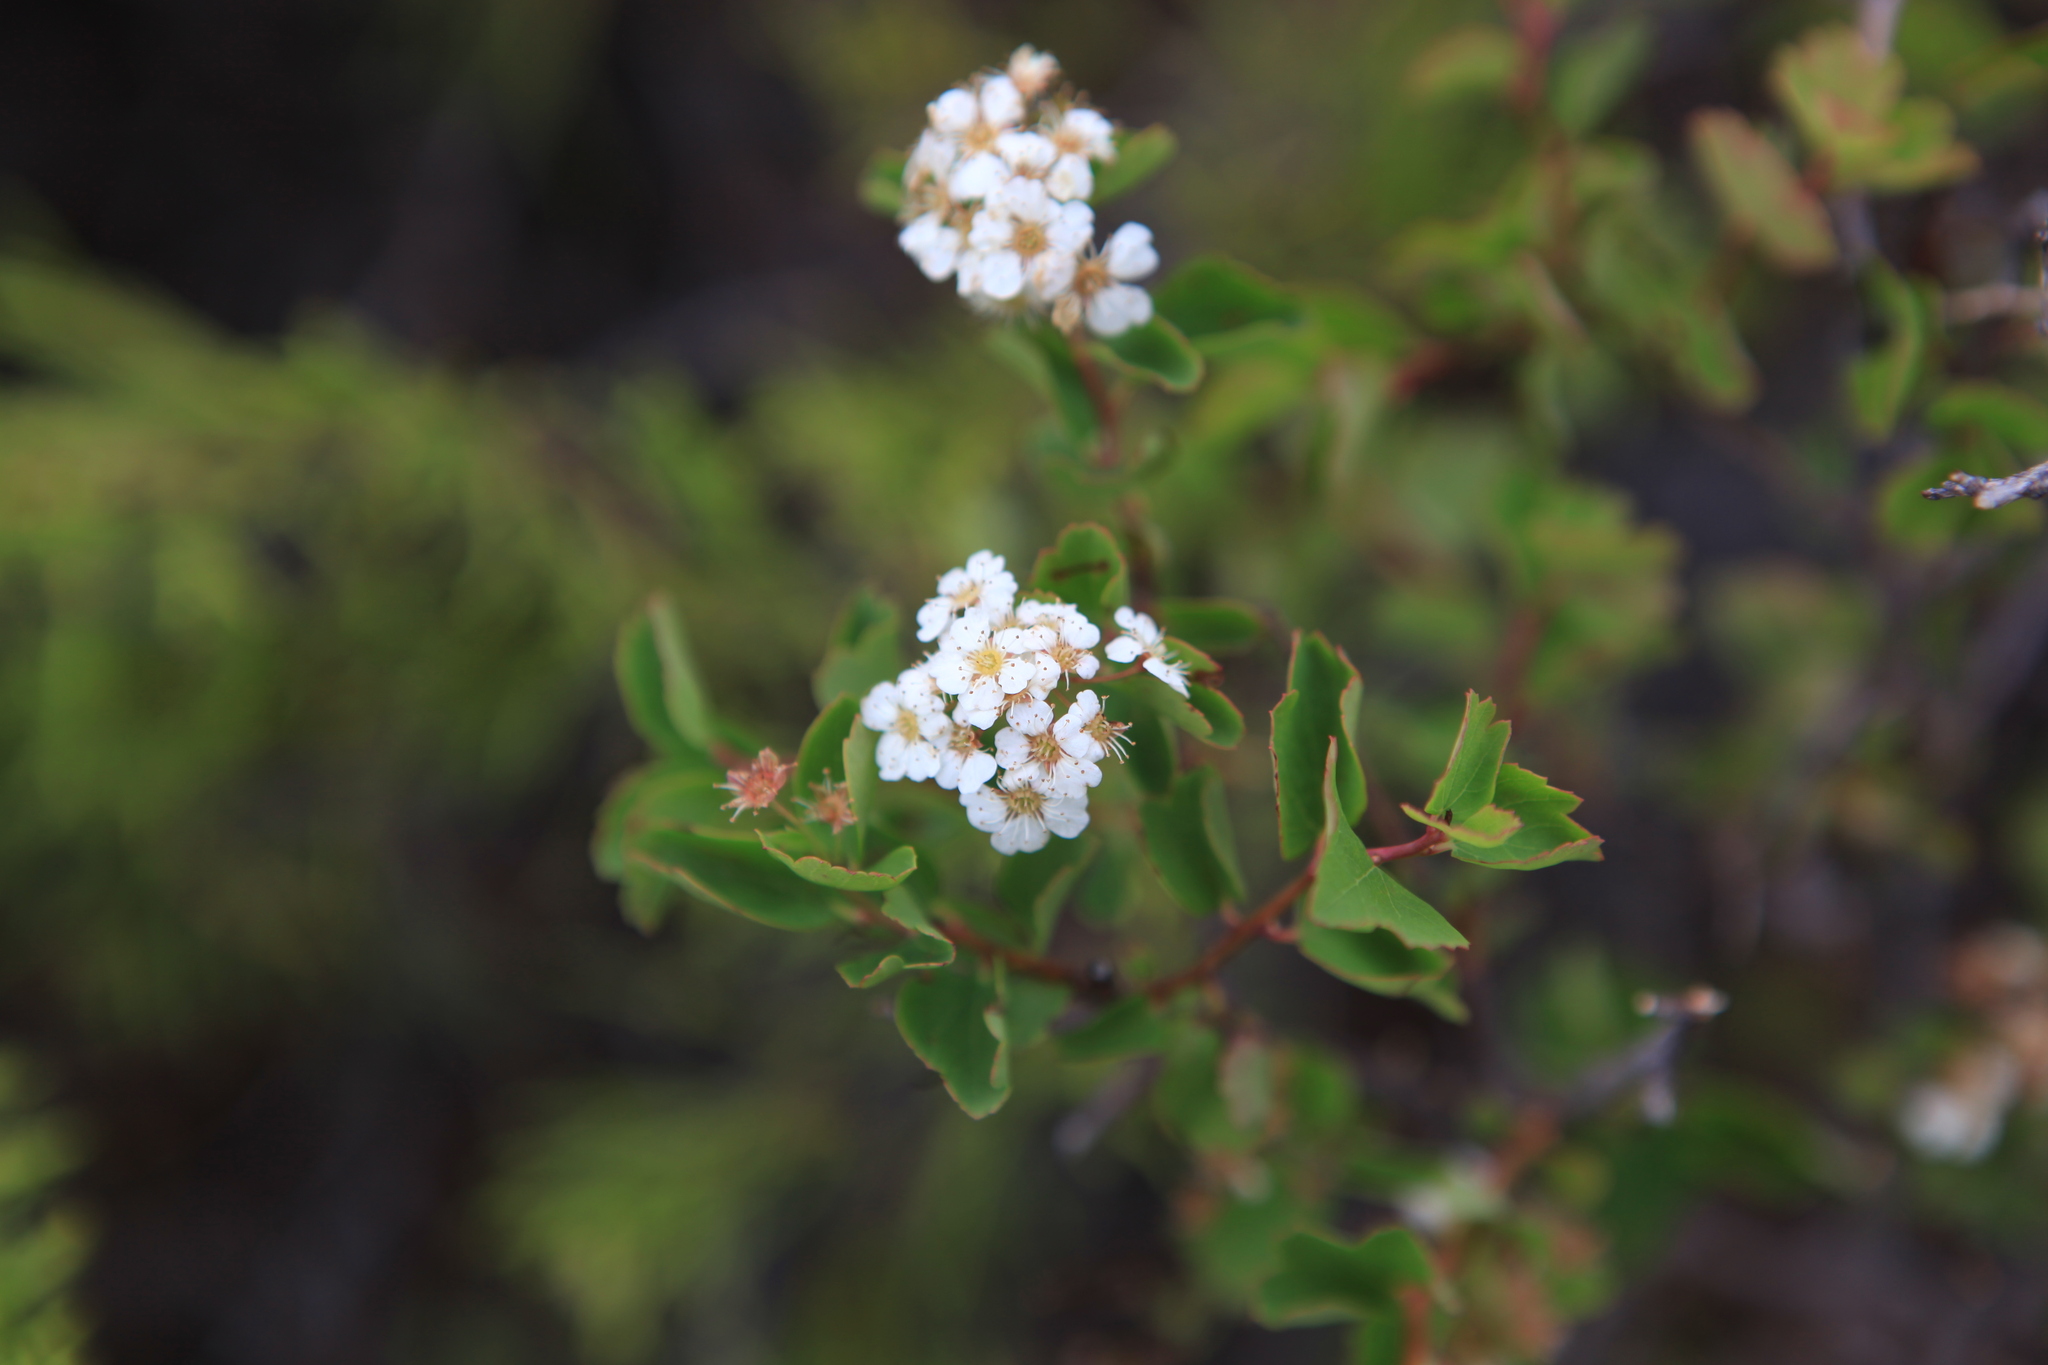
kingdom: Plantae
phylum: Tracheophyta
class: Magnoliopsida
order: Rosales
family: Rosaceae
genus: Spiraea
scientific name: Spiraea trilobata
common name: Asian meadowsweet
